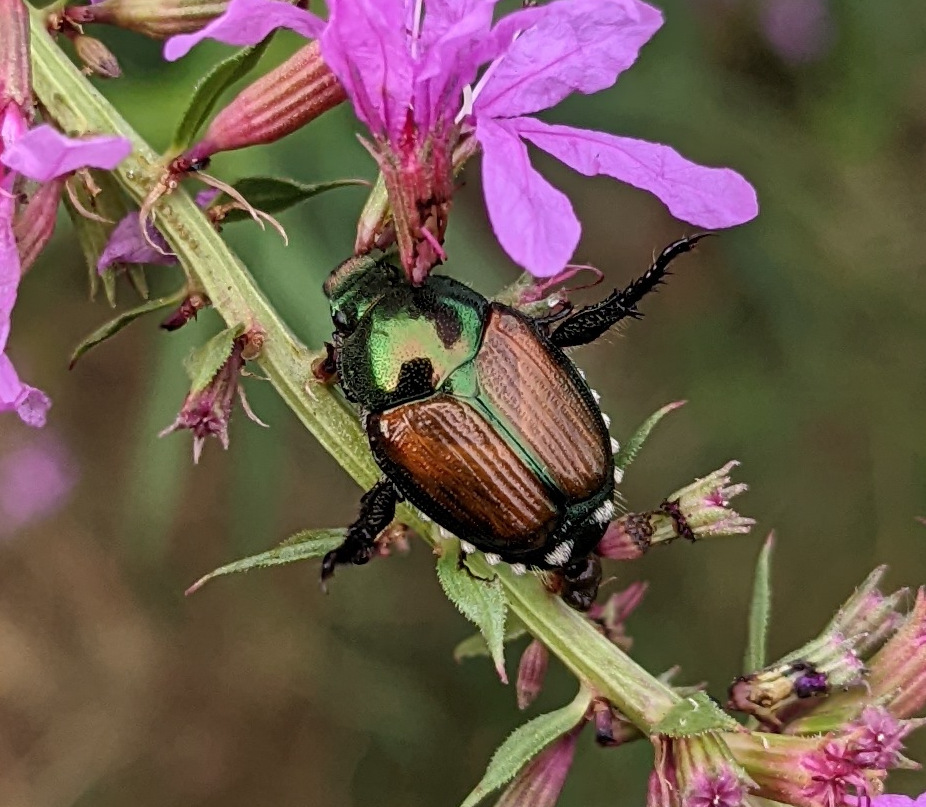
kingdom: Animalia
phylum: Arthropoda
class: Insecta
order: Coleoptera
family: Scarabaeidae
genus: Popillia
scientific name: Popillia japonica
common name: Japanese beetle
